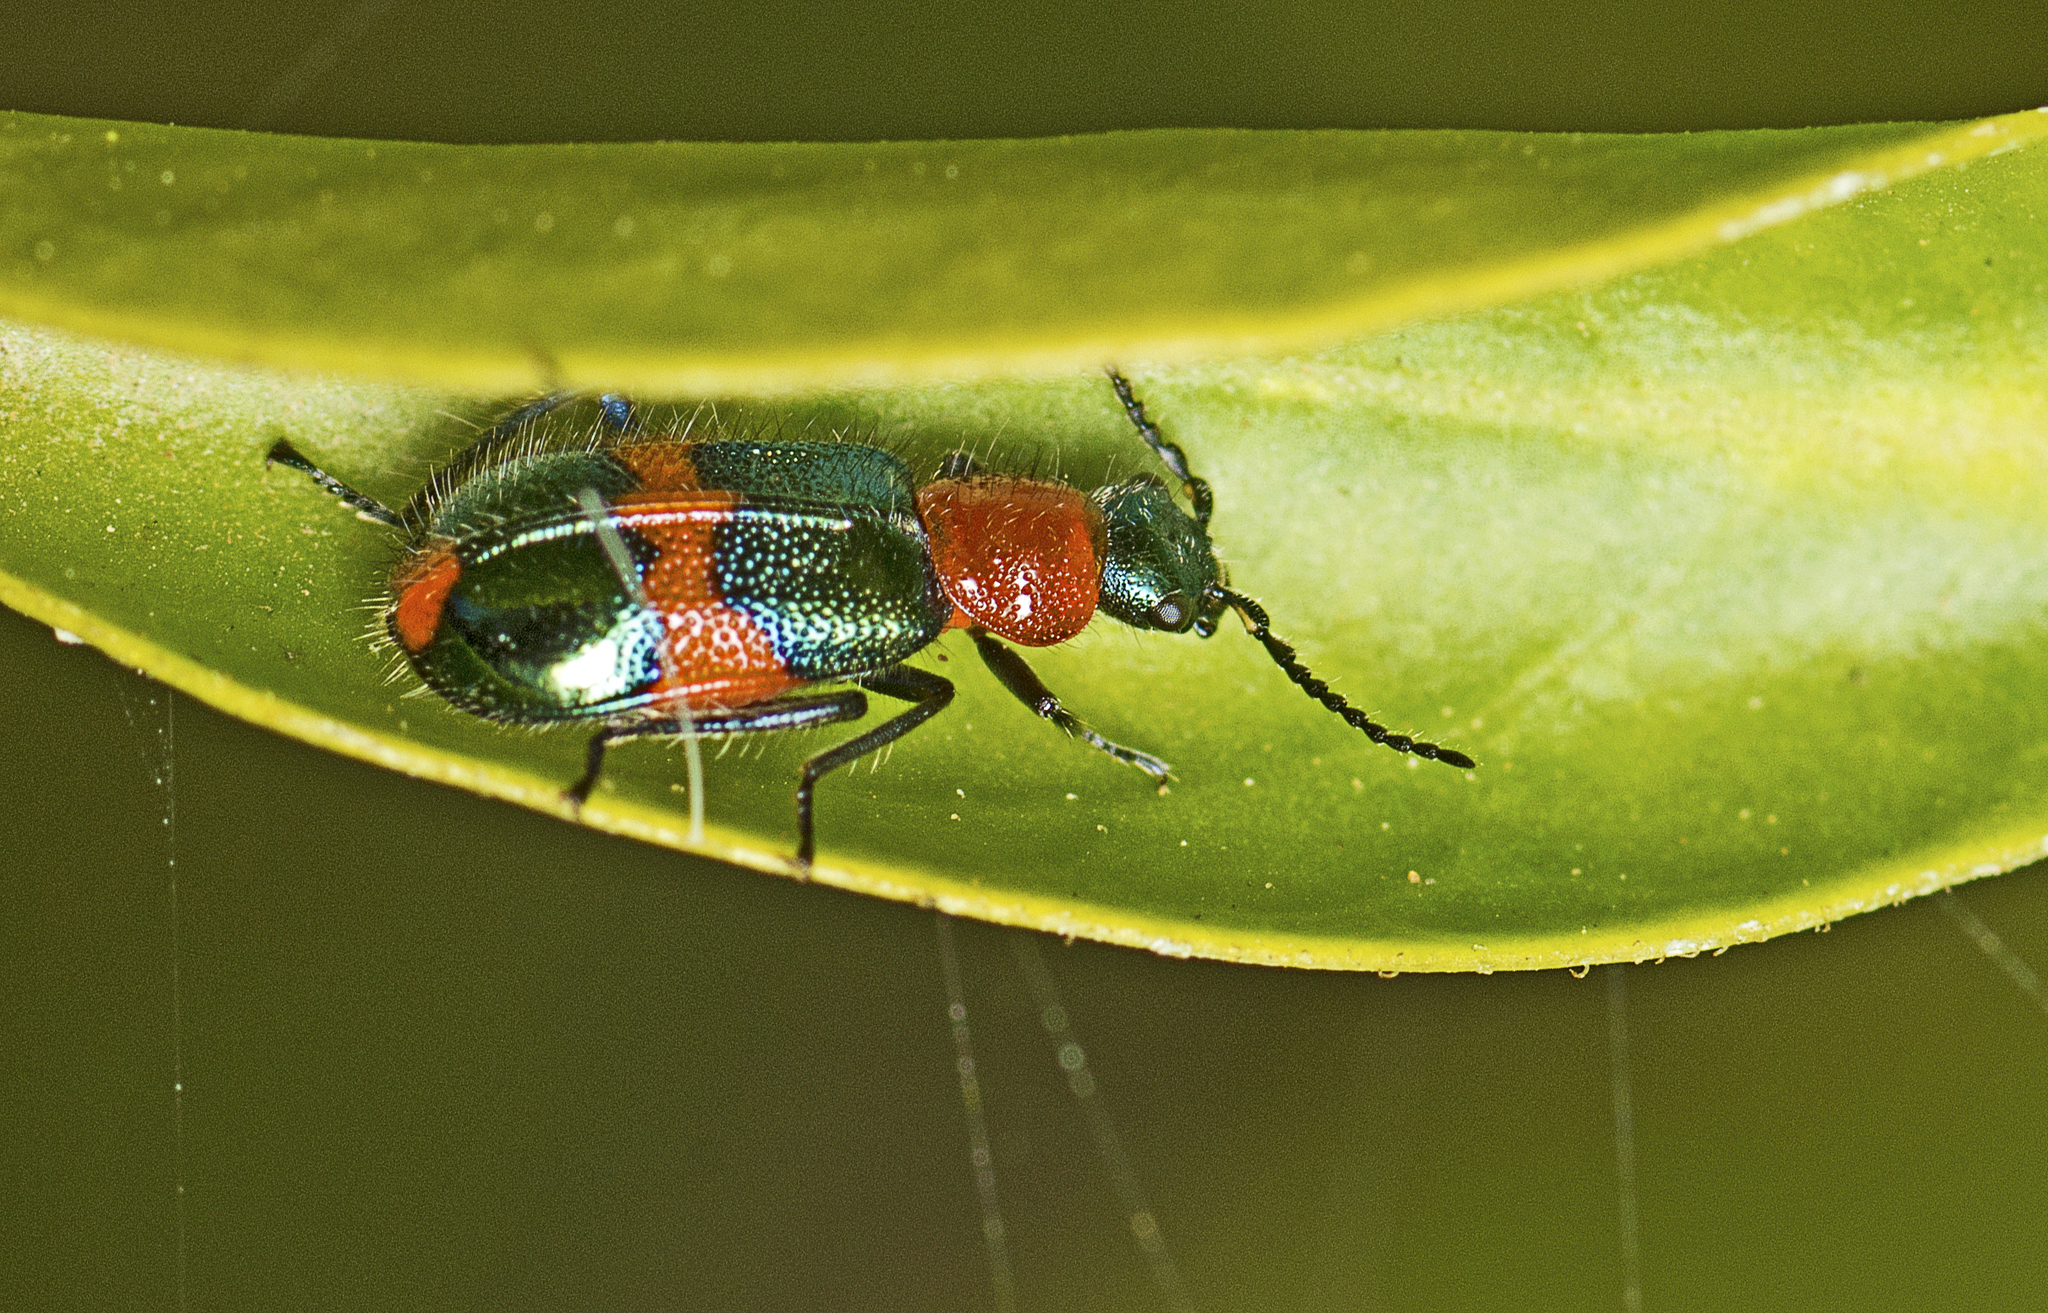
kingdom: Animalia
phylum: Arthropoda
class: Insecta
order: Coleoptera
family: Melyridae
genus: Dicranolaius
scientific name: Dicranolaius bellulus
